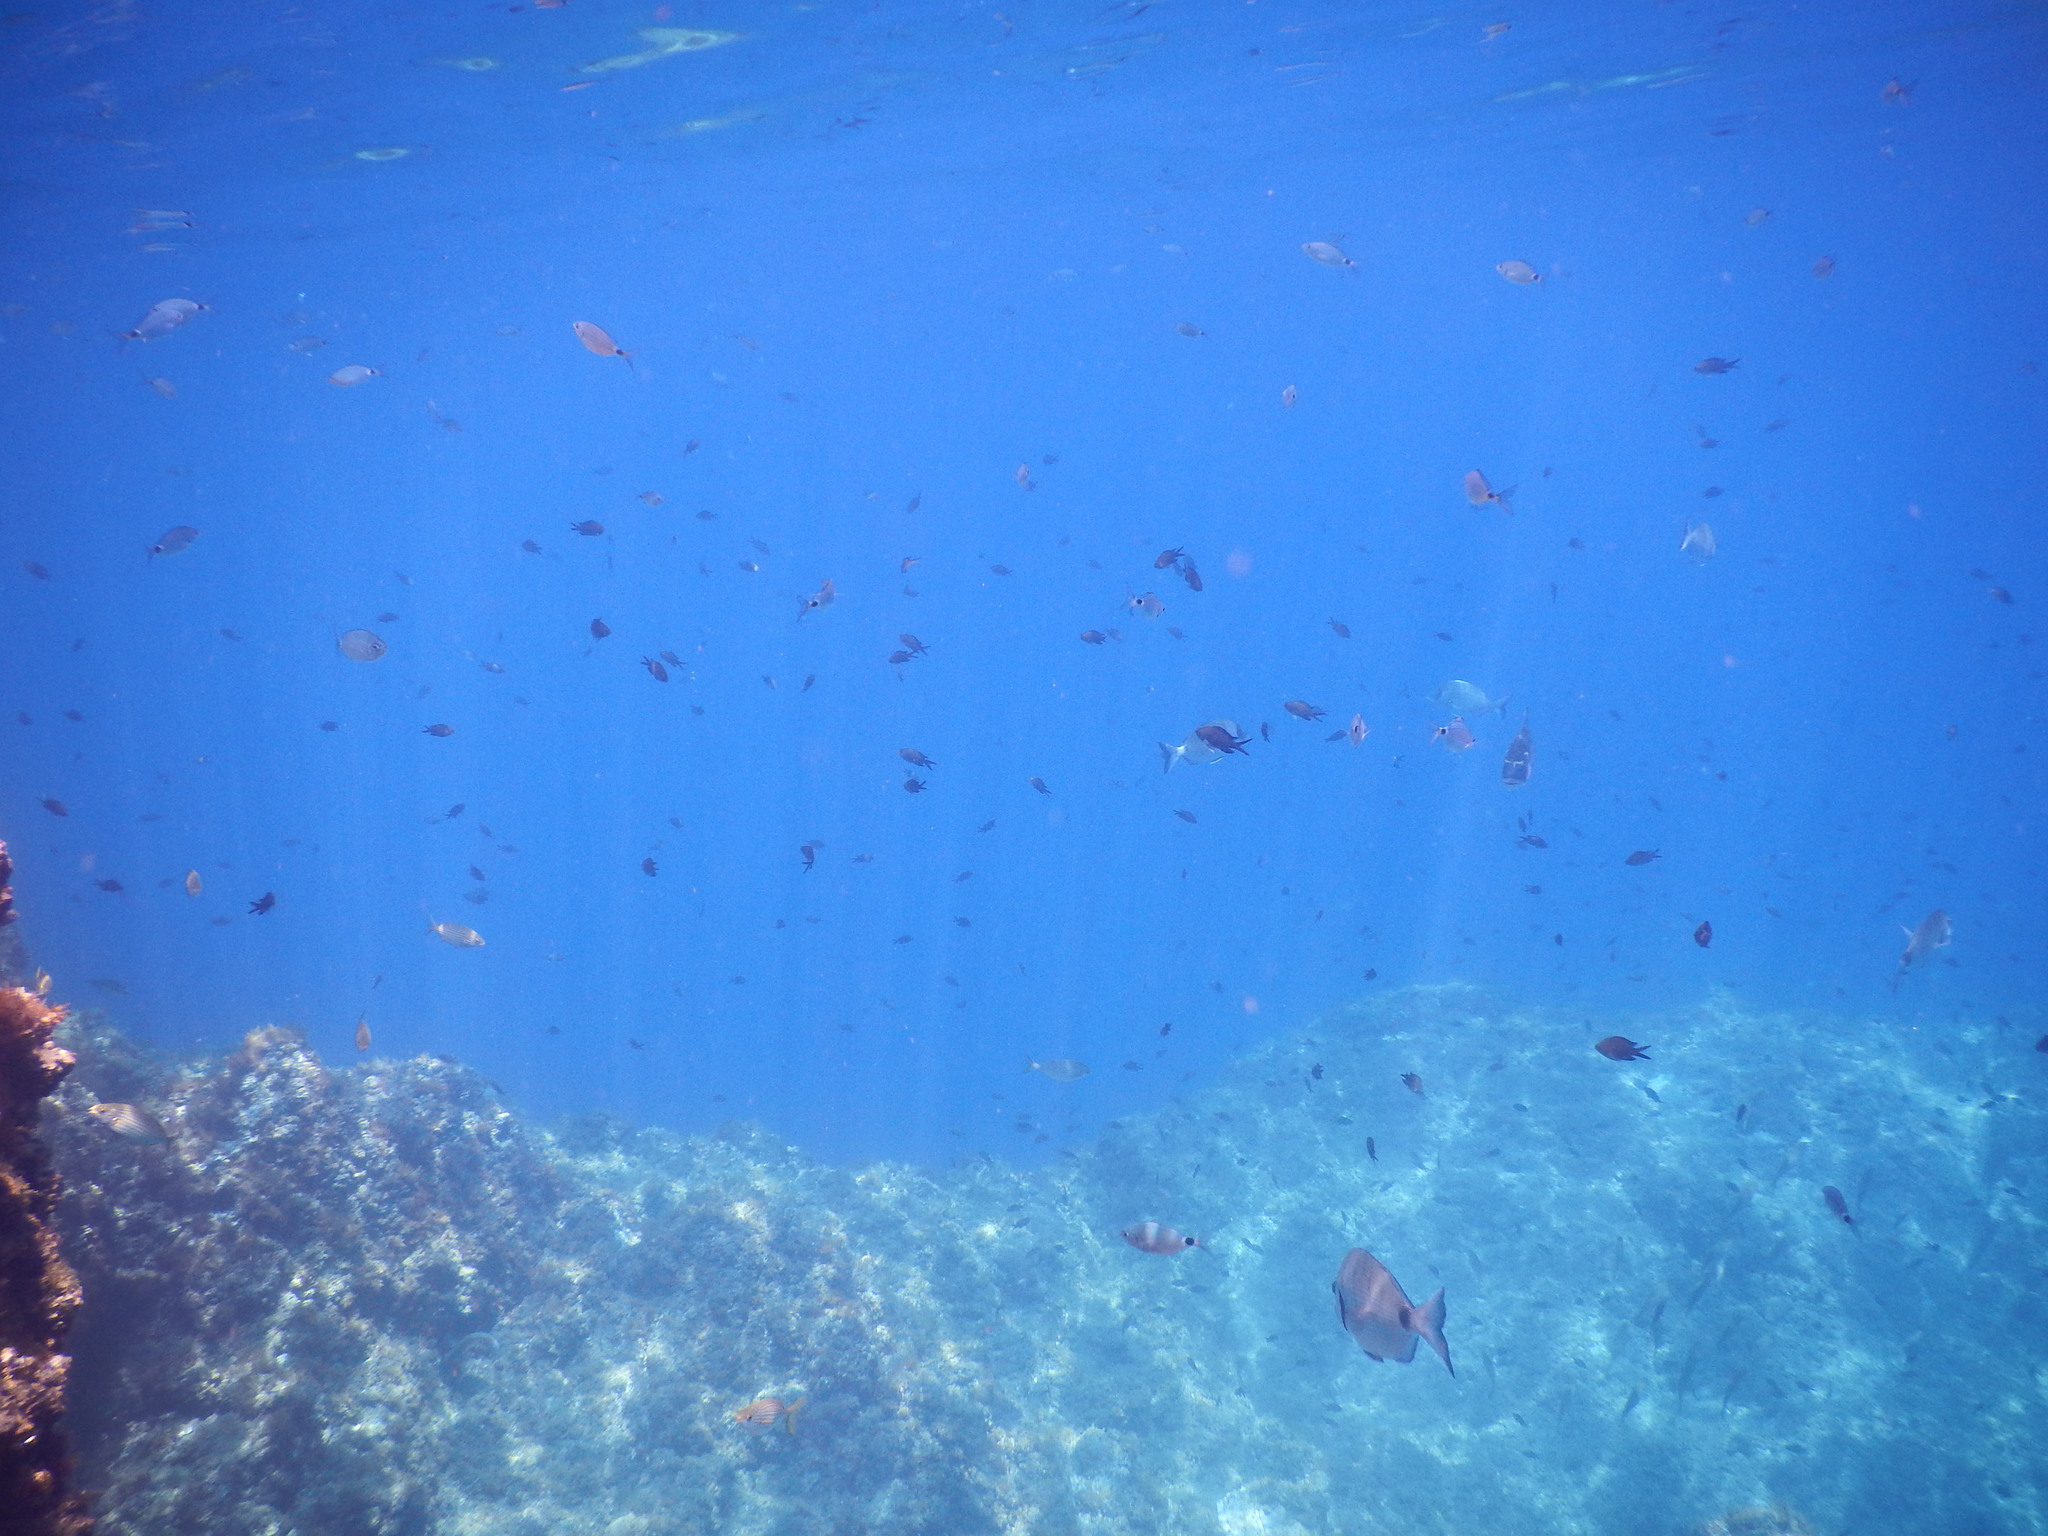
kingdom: Animalia
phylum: Chordata
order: Perciformes
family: Pomacentridae
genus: Chromis
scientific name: Chromis chromis
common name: Damselfish
